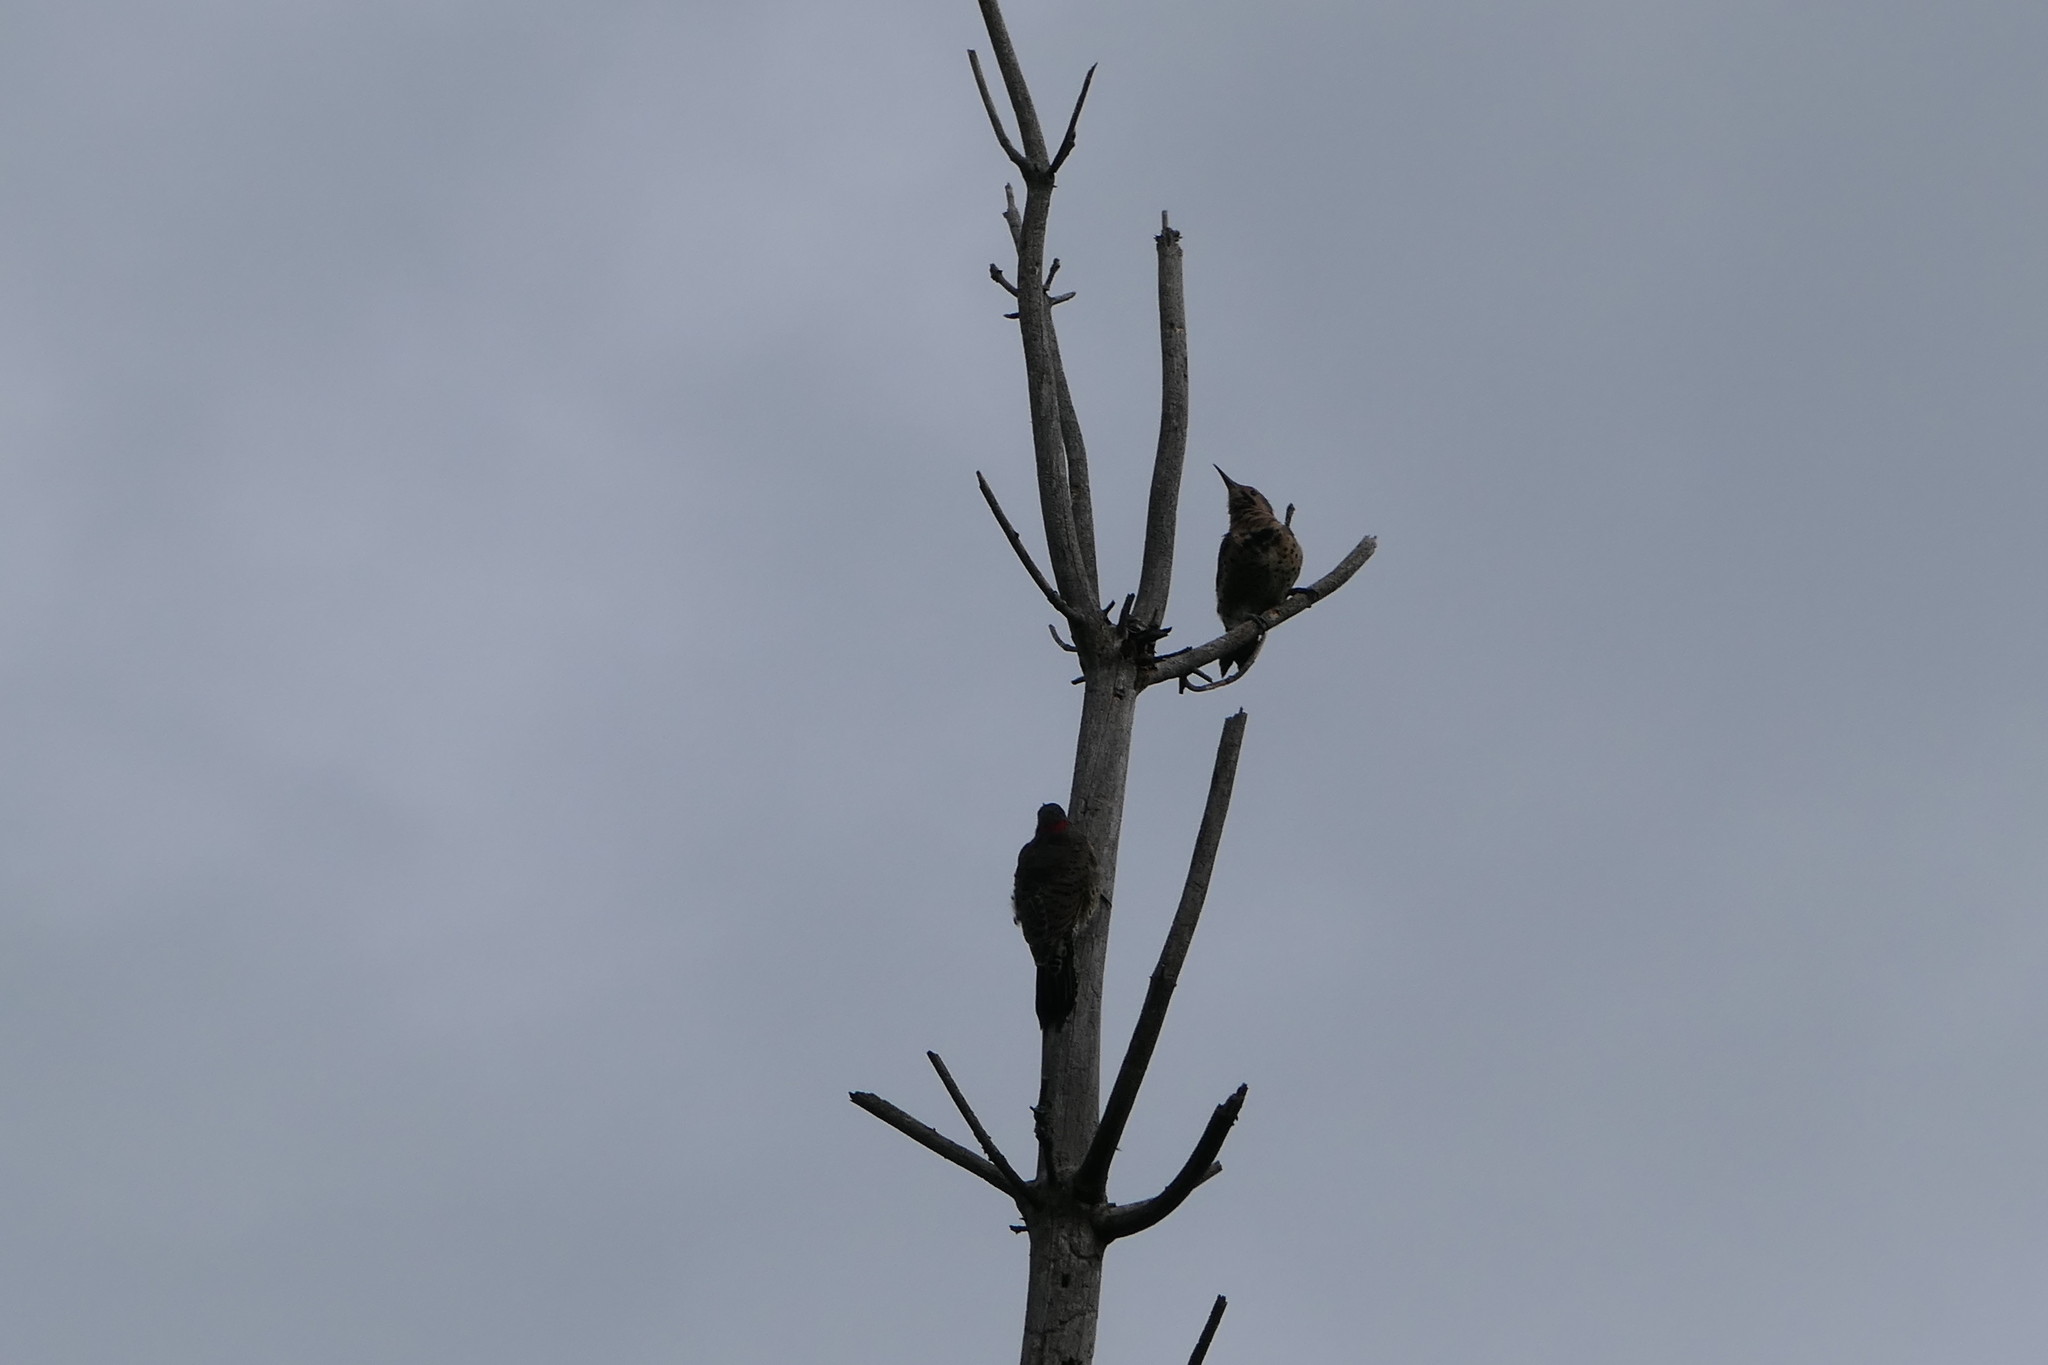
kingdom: Animalia
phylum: Chordata
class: Aves
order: Piciformes
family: Picidae
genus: Colaptes
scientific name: Colaptes auratus
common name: Northern flicker
